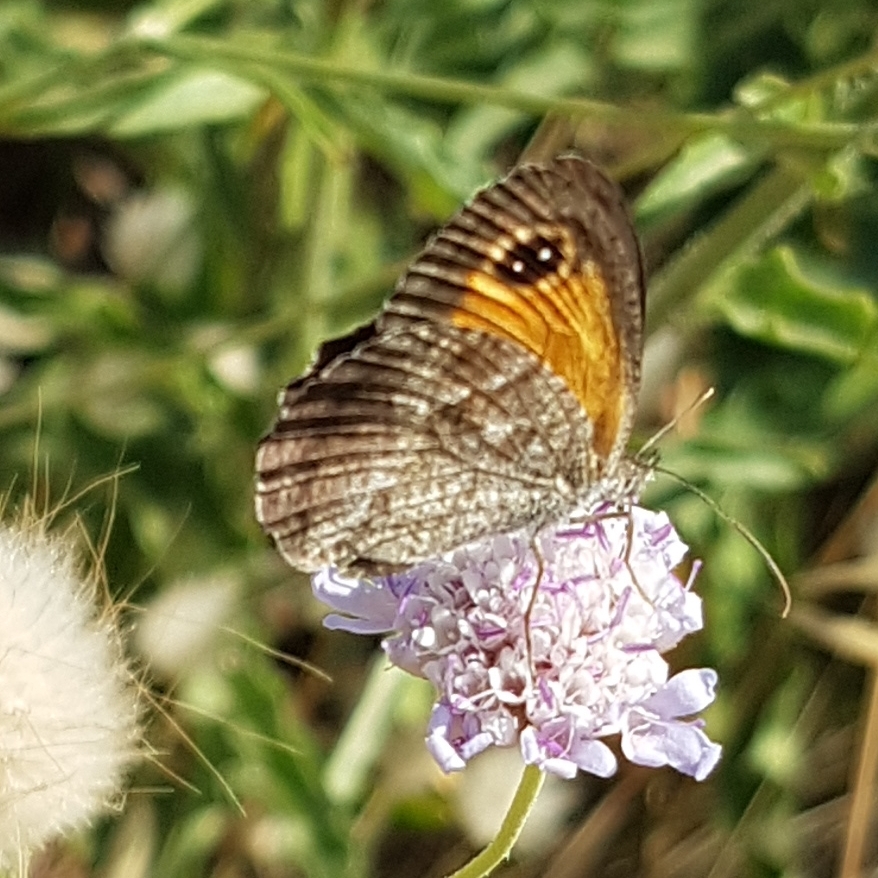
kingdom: Animalia
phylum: Arthropoda
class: Insecta
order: Lepidoptera
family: Nymphalidae
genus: Pyronia
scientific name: Pyronia cecilia
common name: Southern gatekeeper
